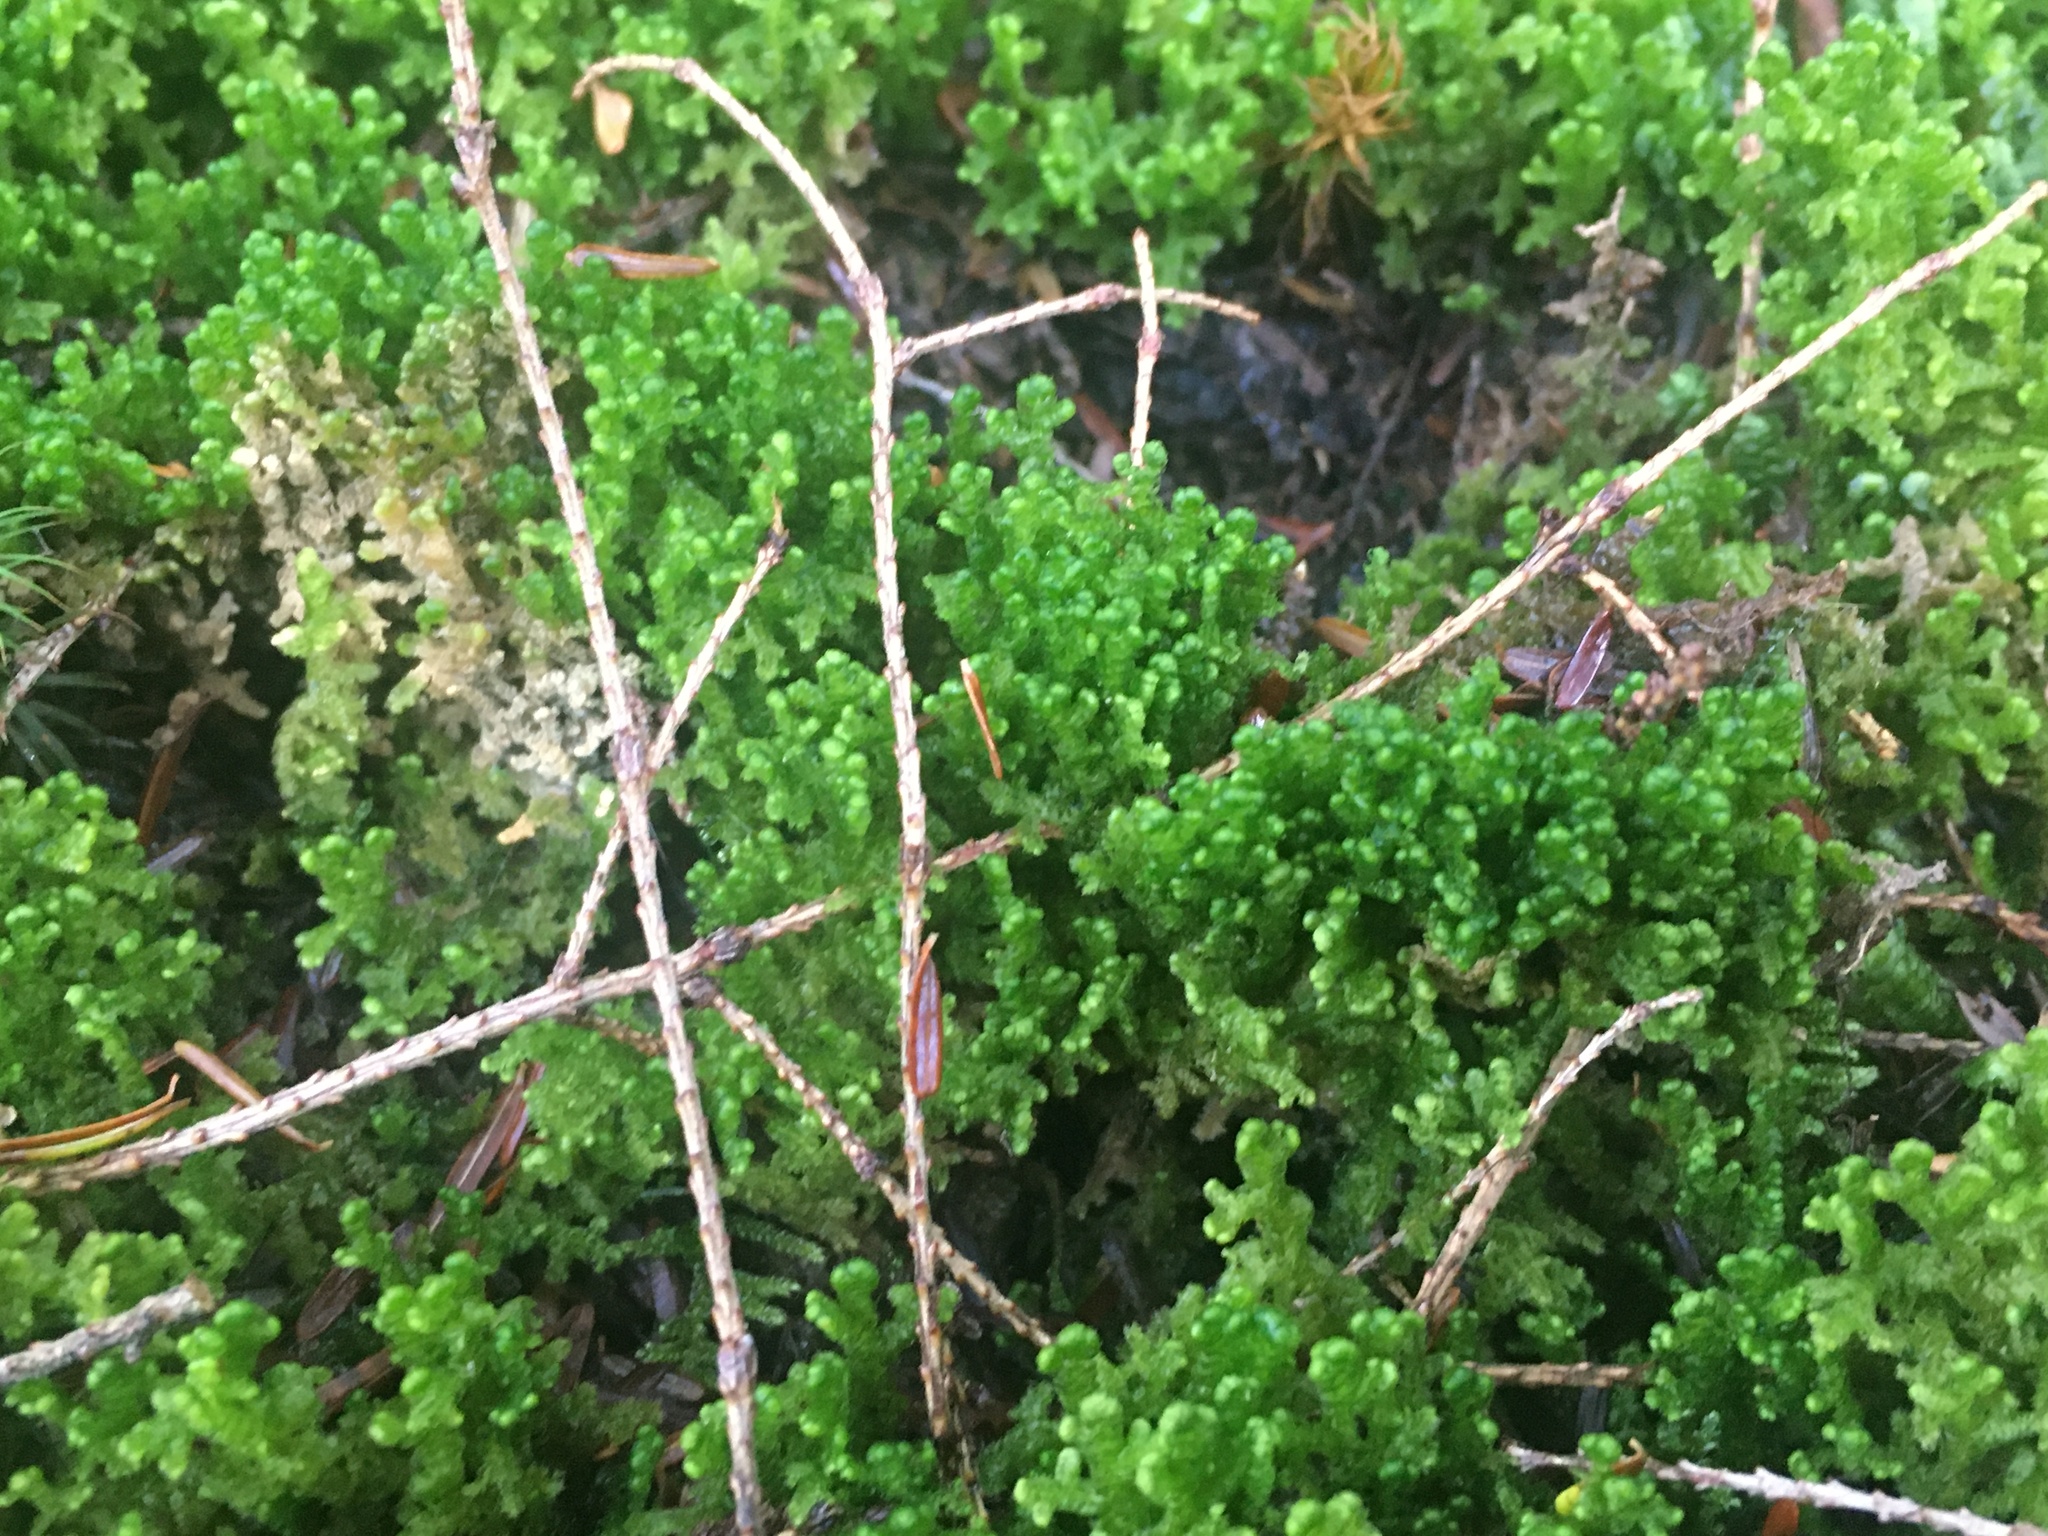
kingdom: Plantae
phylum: Marchantiophyta
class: Jungermanniopsida
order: Jungermanniales
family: Trichocoleaceae
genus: Trichocolea
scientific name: Trichocolea tomentella
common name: Woolly liverwort
